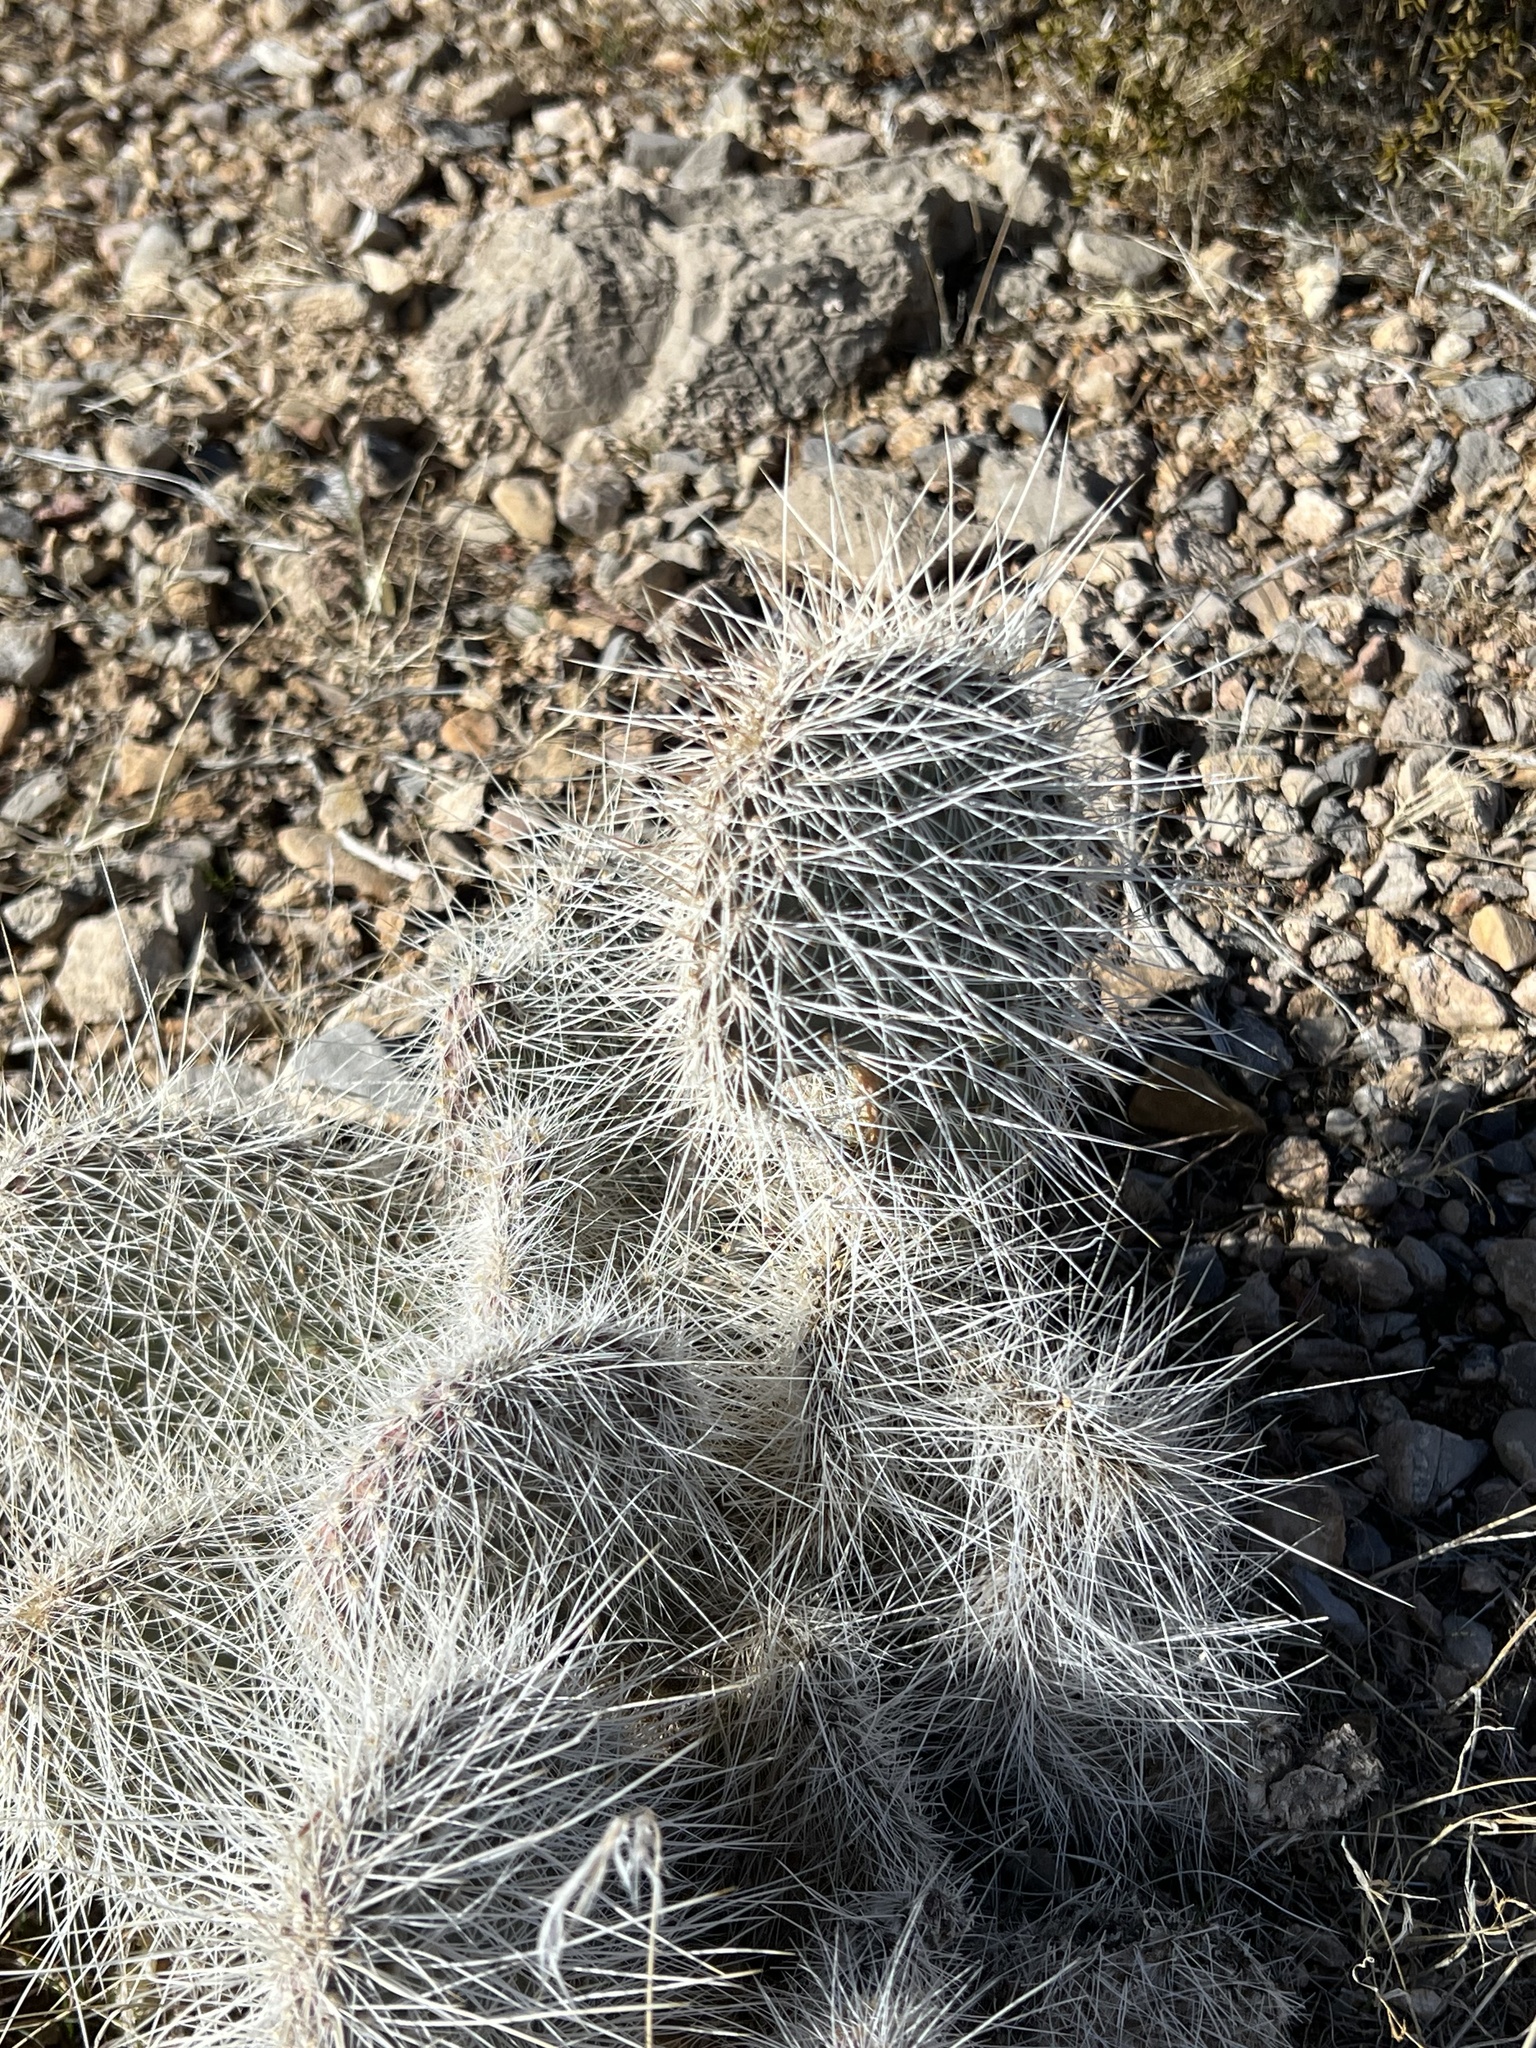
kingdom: Plantae
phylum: Tracheophyta
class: Magnoliopsida
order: Caryophyllales
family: Cactaceae
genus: Opuntia
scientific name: Opuntia polyacantha
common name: Plains prickly-pear
